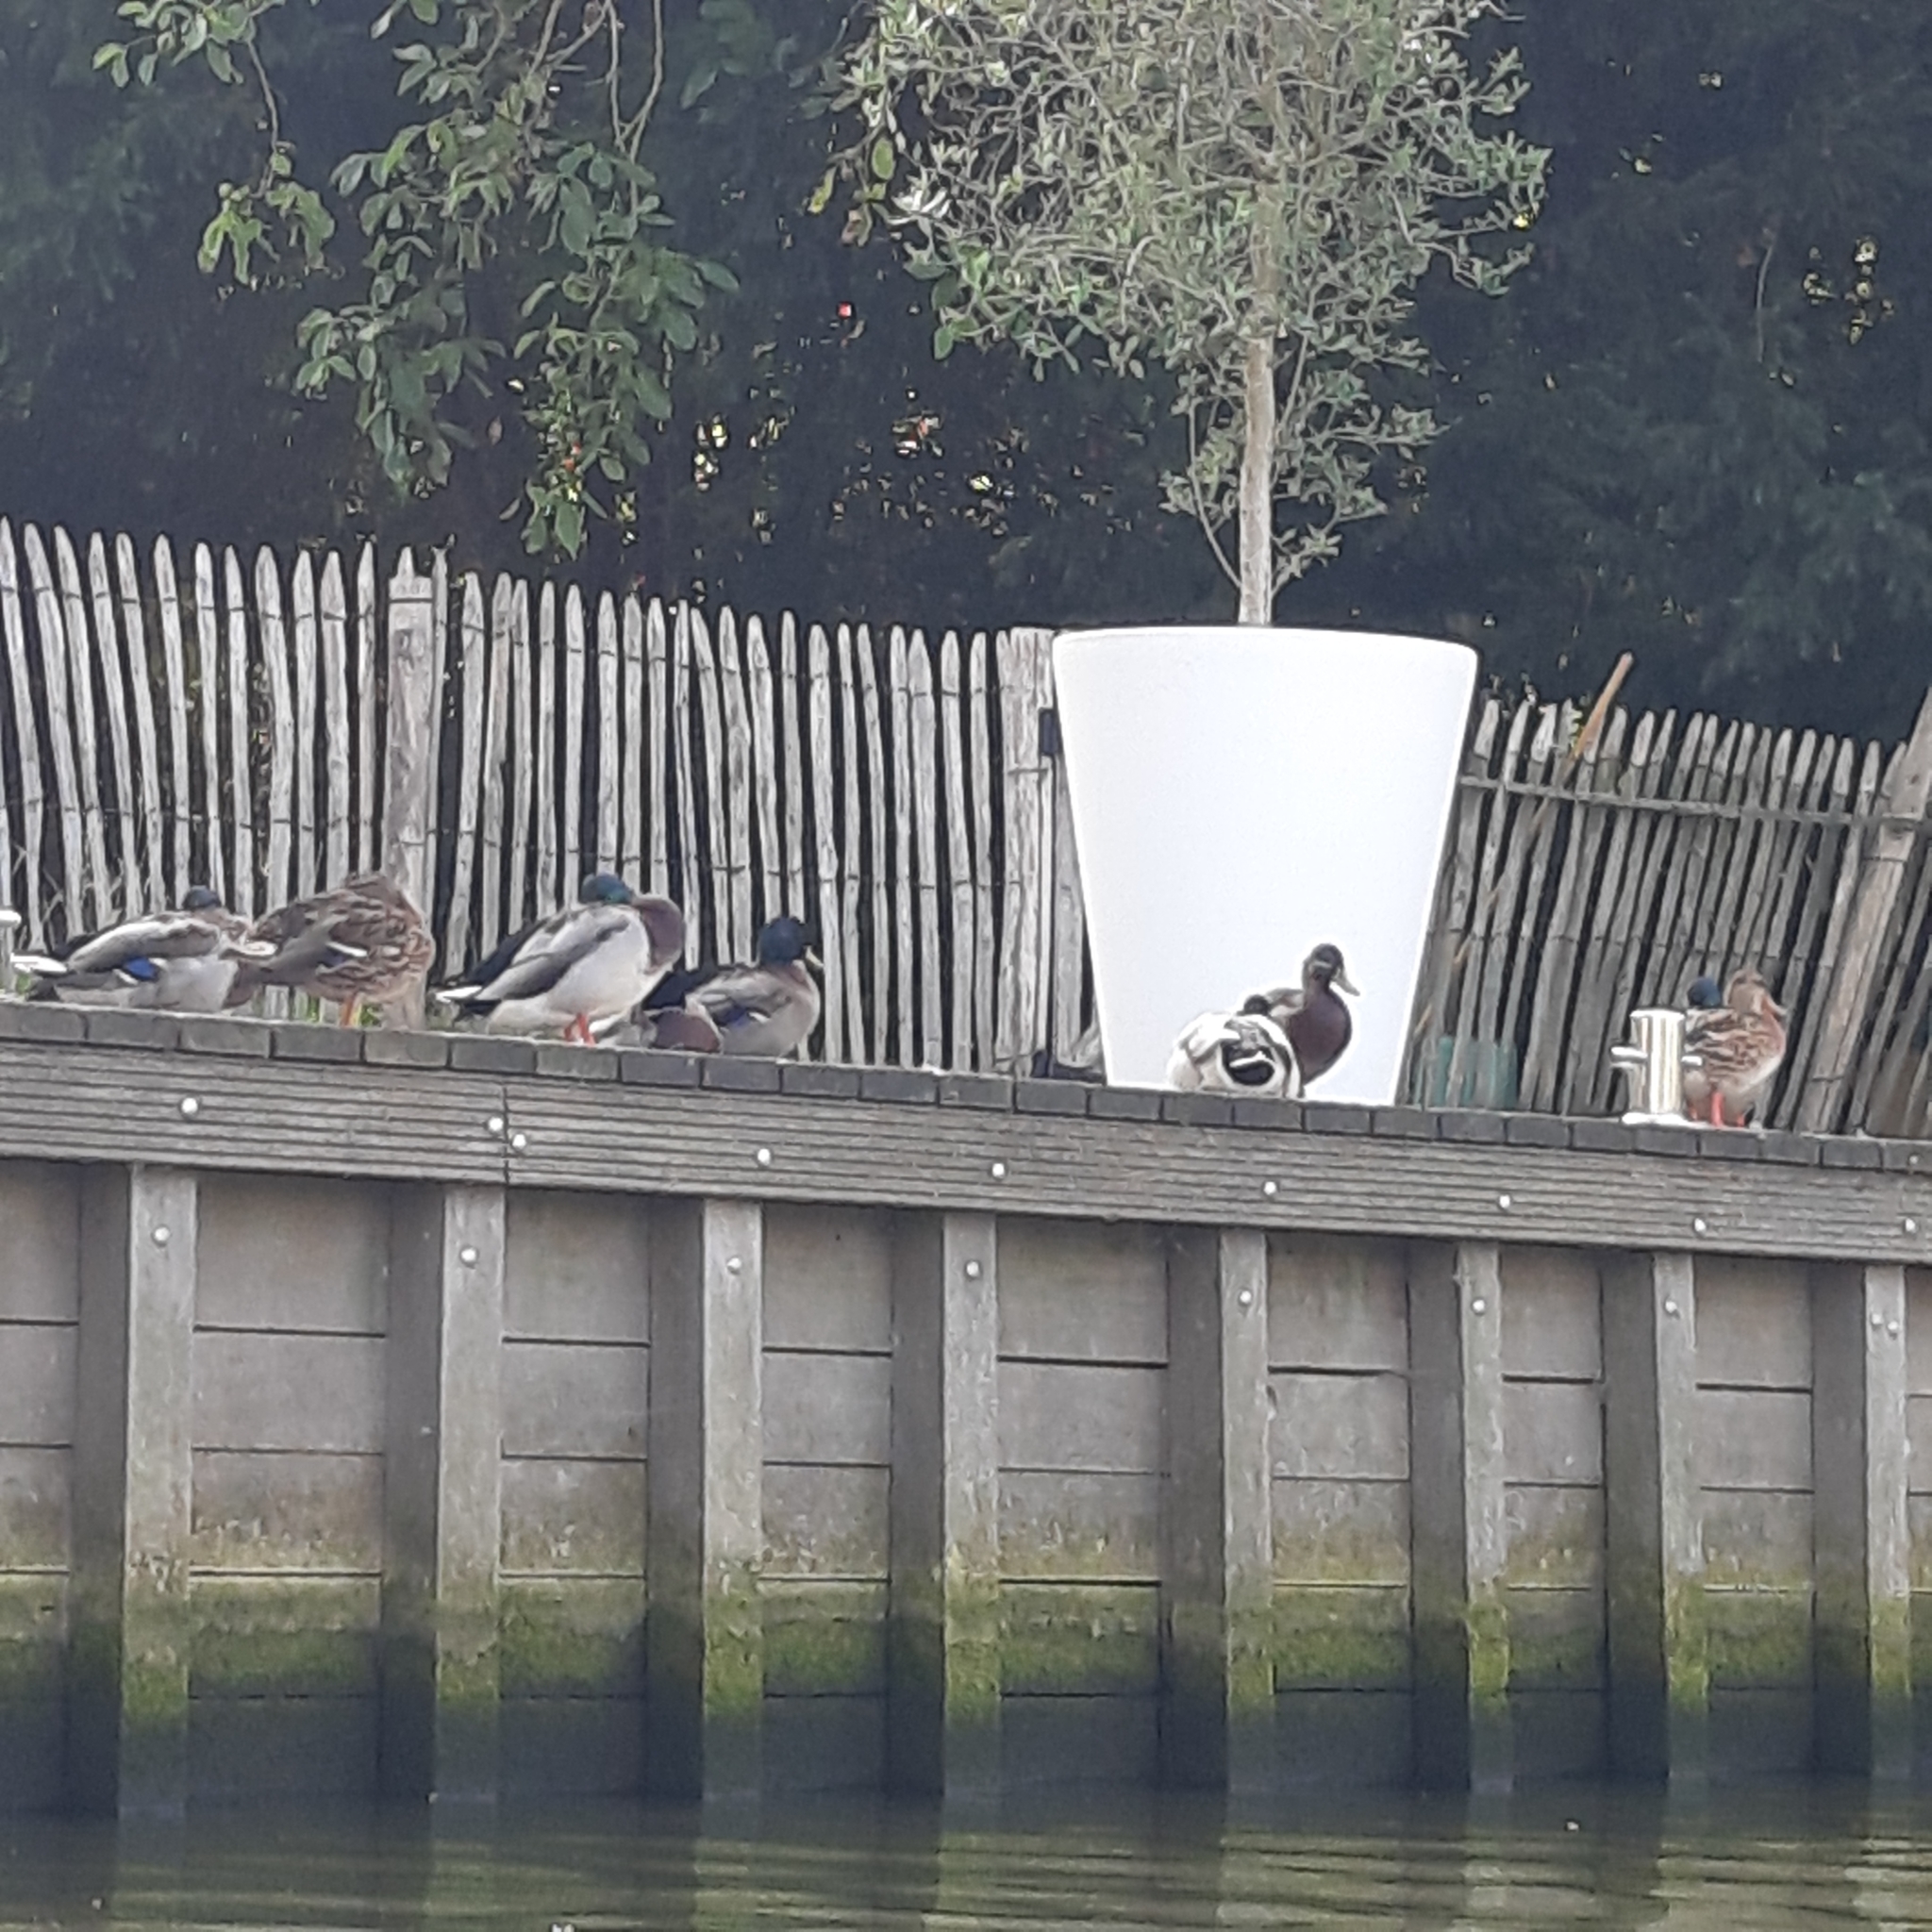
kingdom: Animalia
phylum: Chordata
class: Aves
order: Anseriformes
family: Anatidae
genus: Anas
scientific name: Anas platyrhynchos
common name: Mallard
